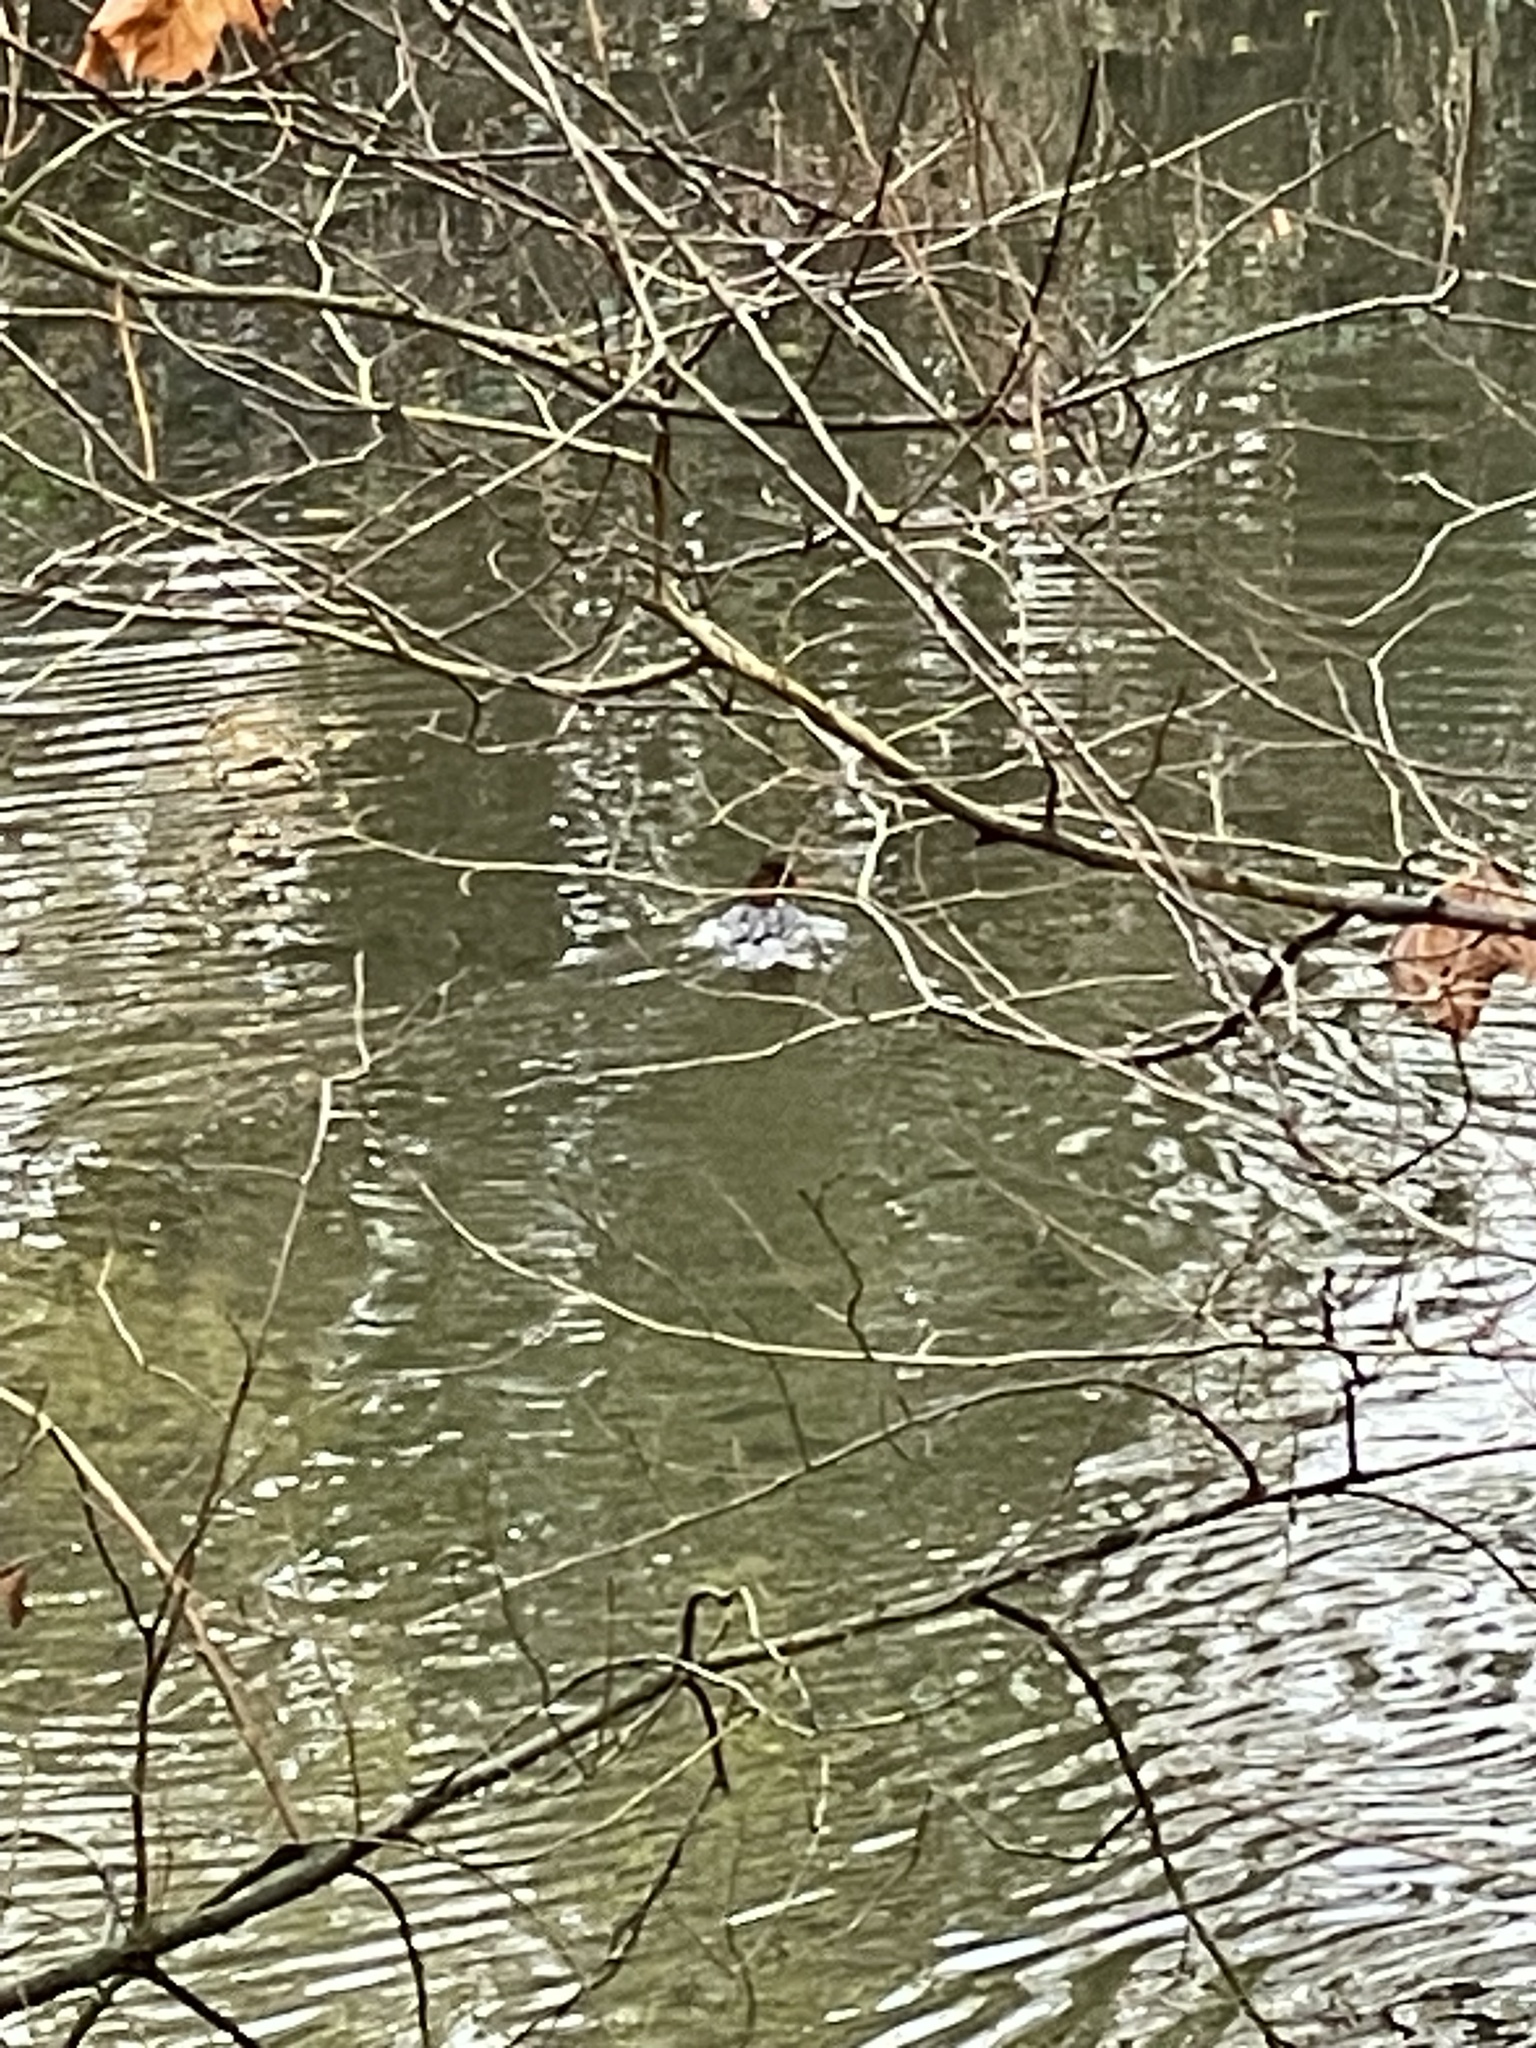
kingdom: Animalia
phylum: Chordata
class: Aves
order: Anseriformes
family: Anatidae
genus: Mergus
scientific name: Mergus merganser
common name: Common merganser
